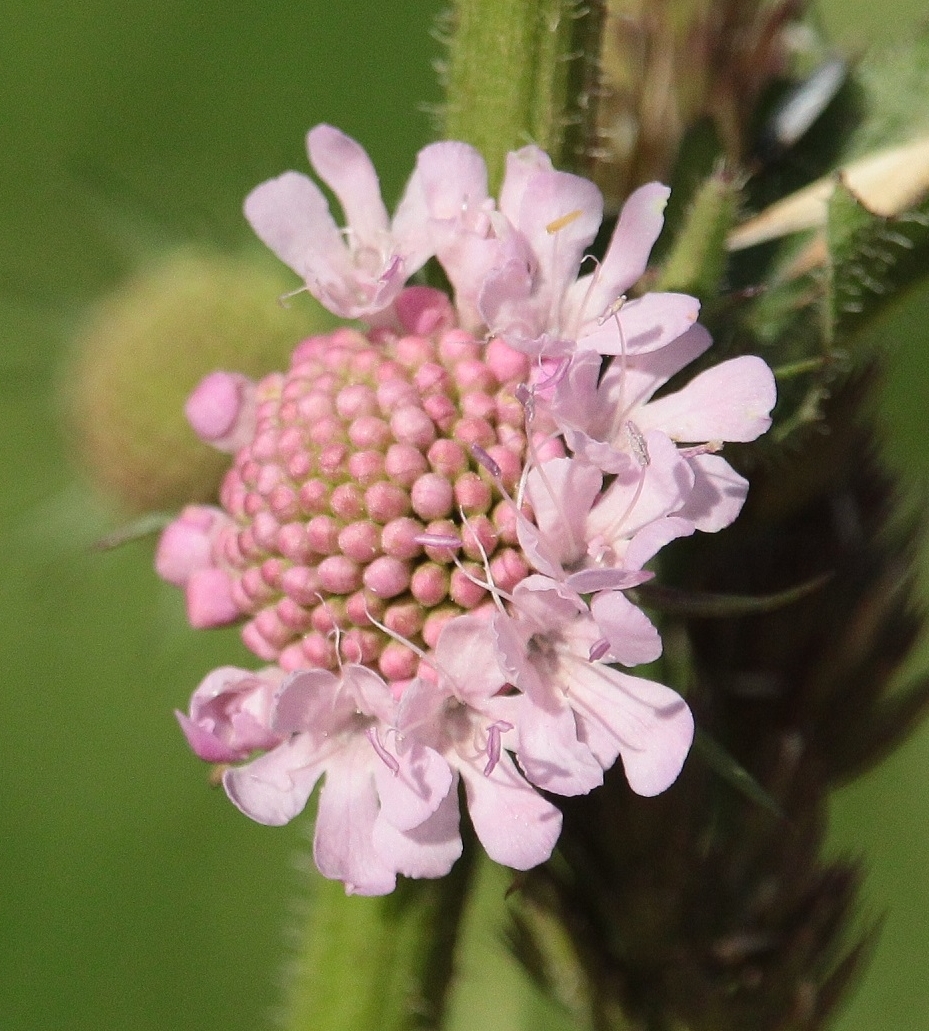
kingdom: Plantae
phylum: Tracheophyta
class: Magnoliopsida
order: Dipsacales
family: Caprifoliaceae
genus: Scabiosa
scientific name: Scabiosa columbaria
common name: Small scabious
